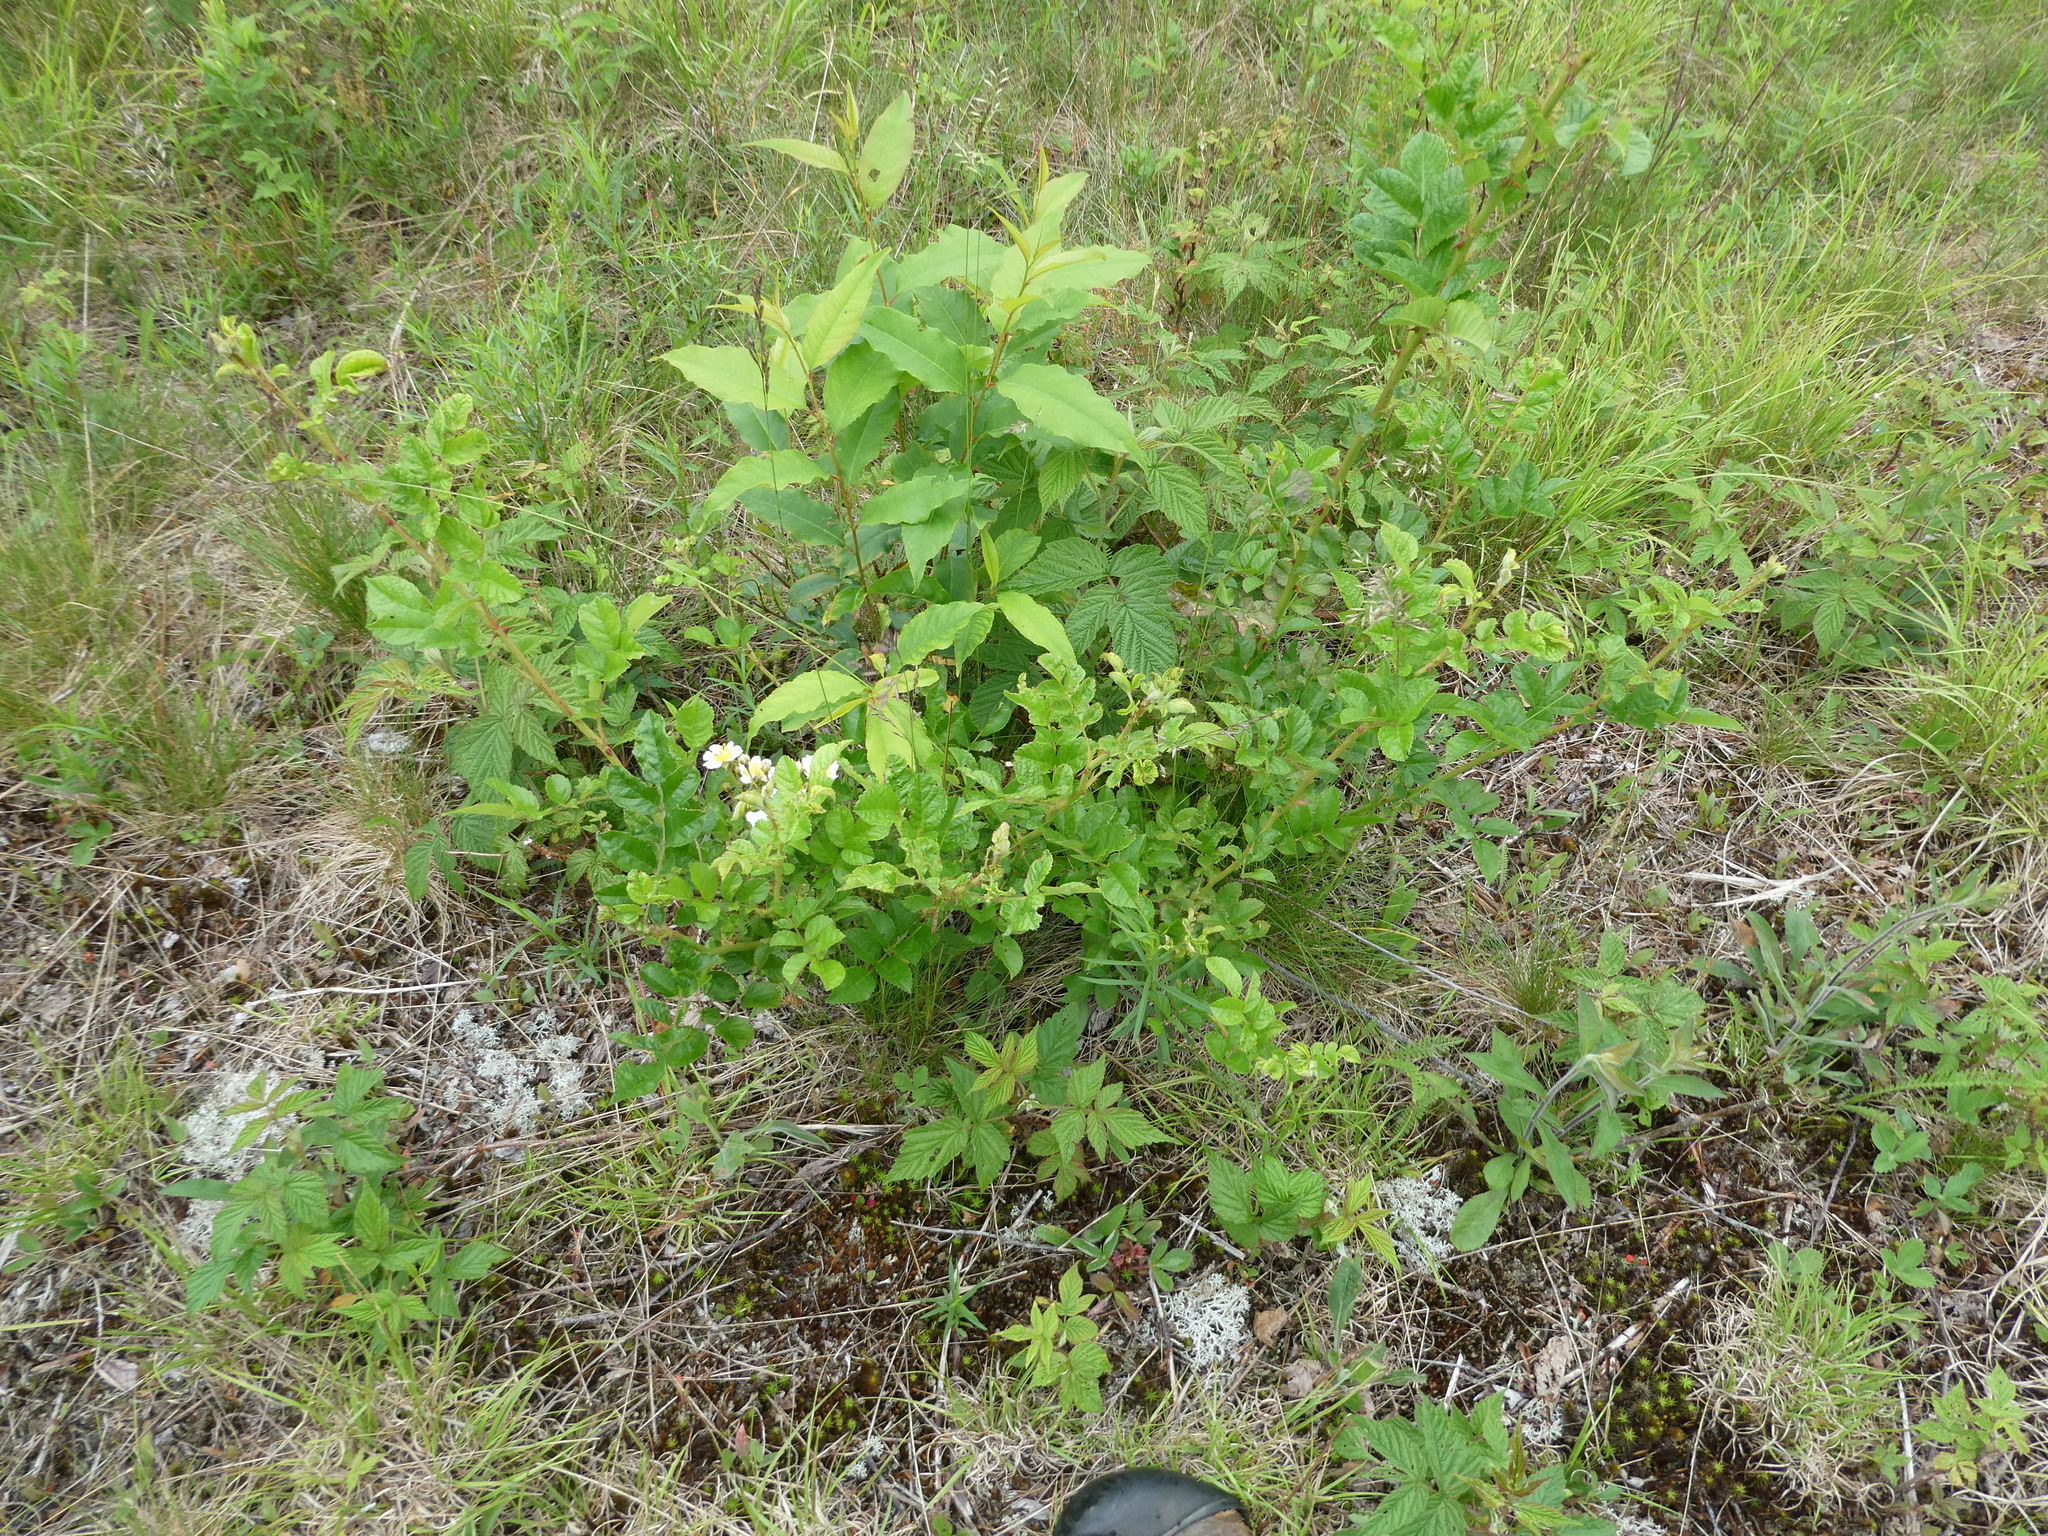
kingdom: Plantae
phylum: Tracheophyta
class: Magnoliopsida
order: Rosales
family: Rosaceae
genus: Rosa
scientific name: Rosa multiflora
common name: Multiflora rose
